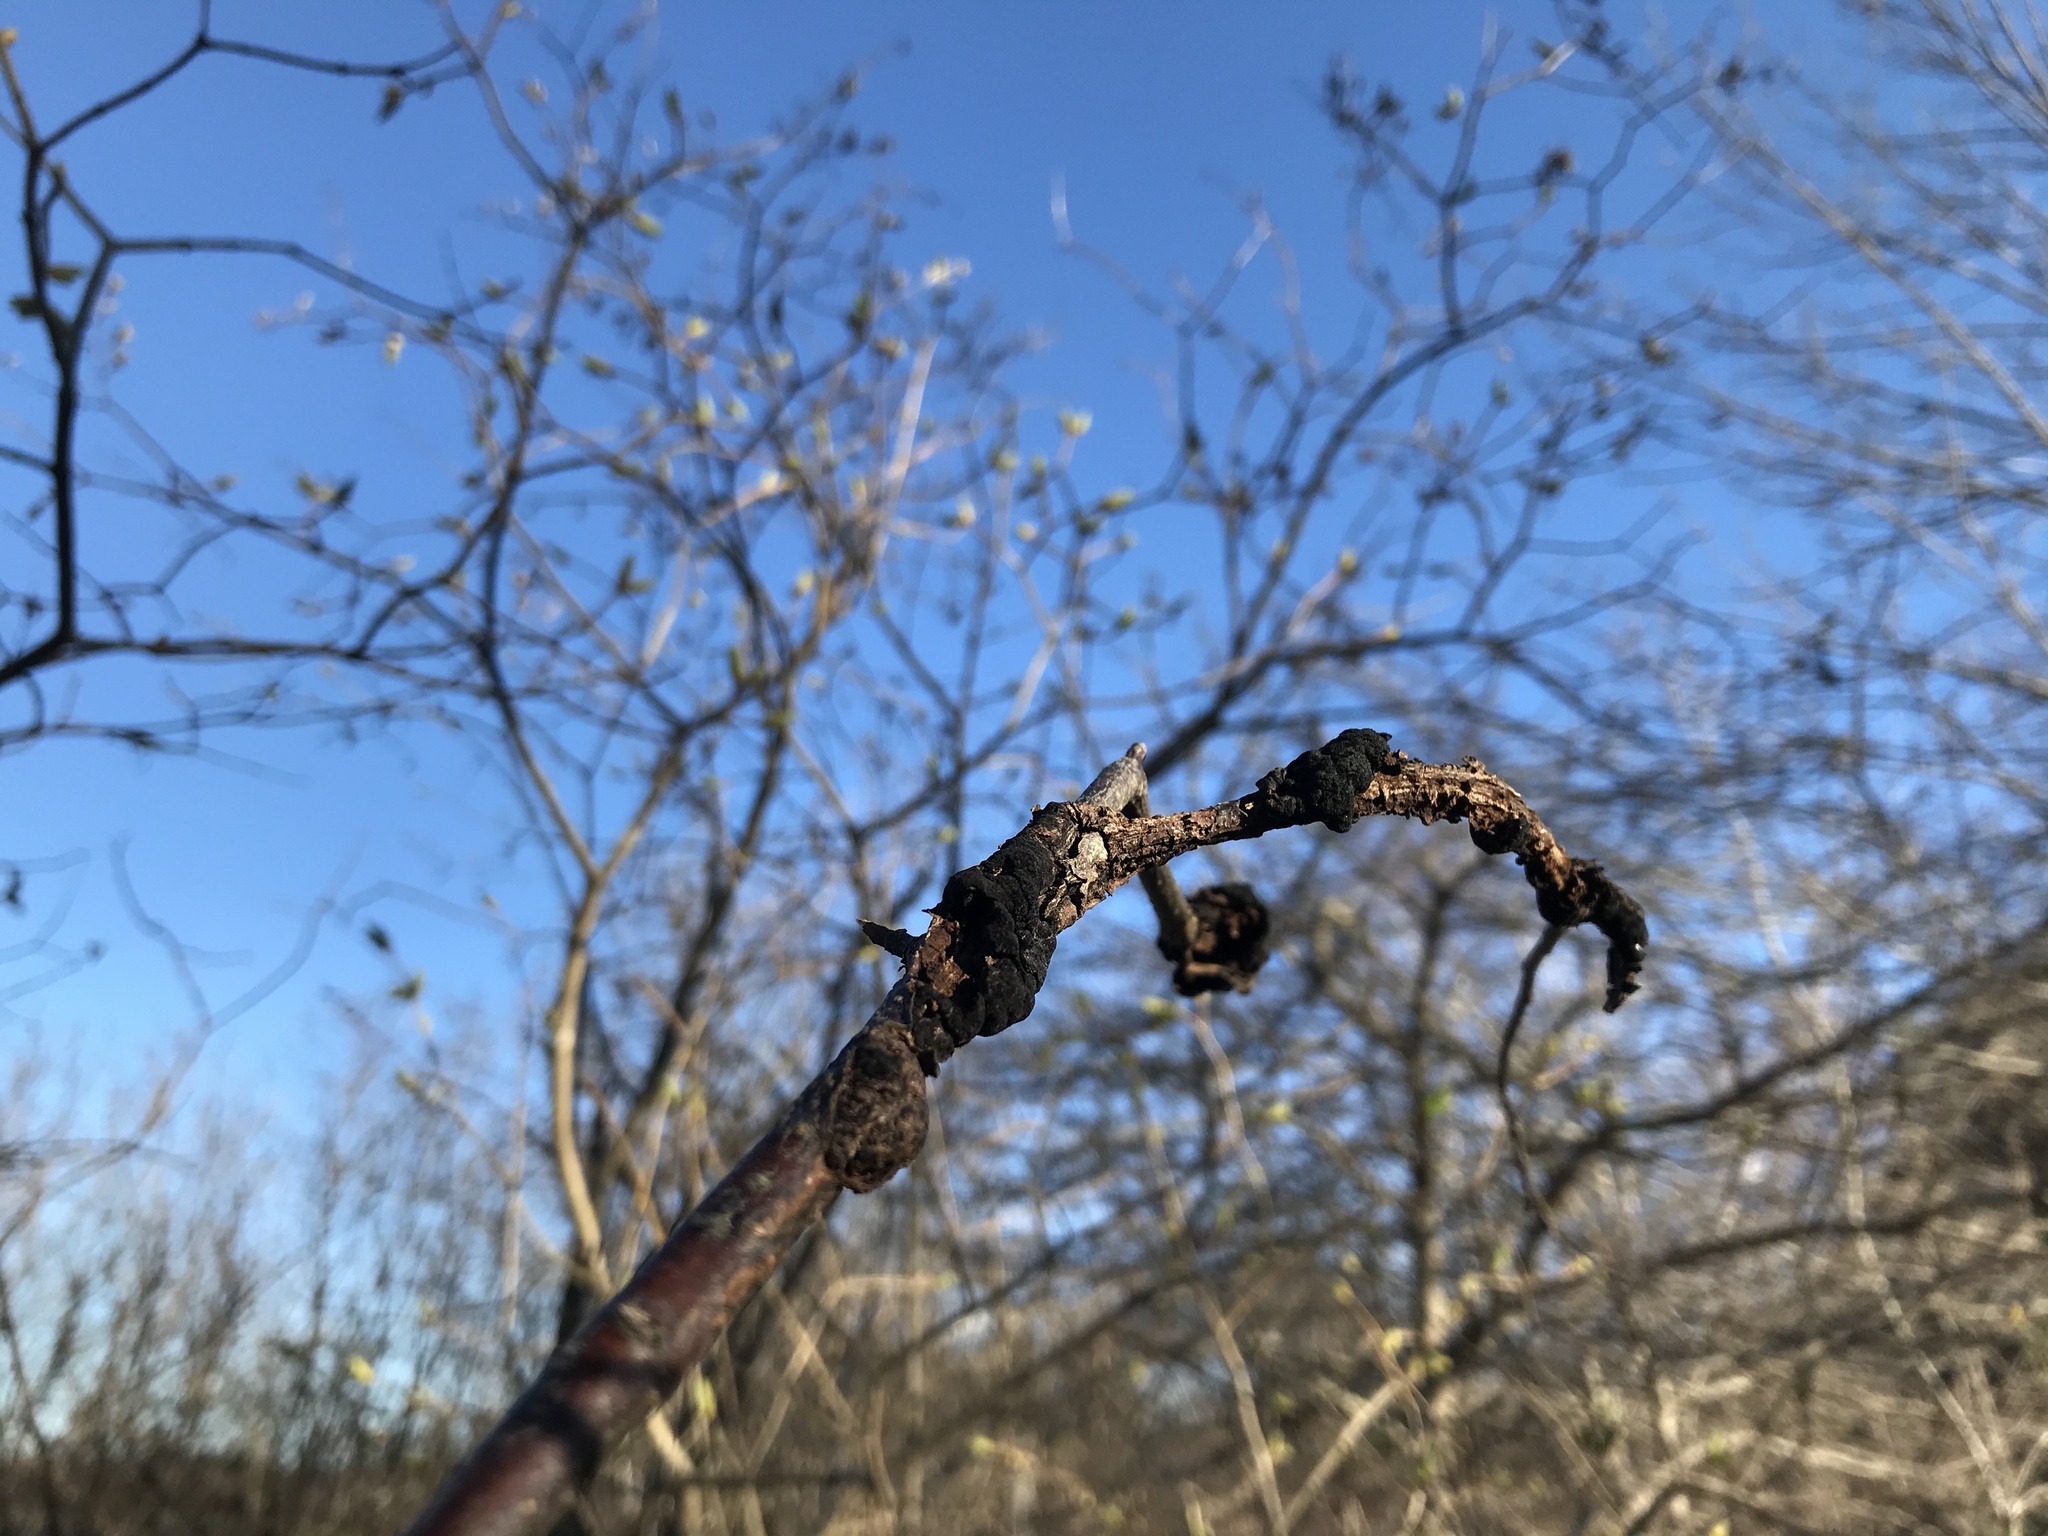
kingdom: Fungi
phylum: Ascomycota
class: Dothideomycetes
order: Venturiales
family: Venturiaceae
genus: Apiosporina
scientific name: Apiosporina morbosa
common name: Black knot
